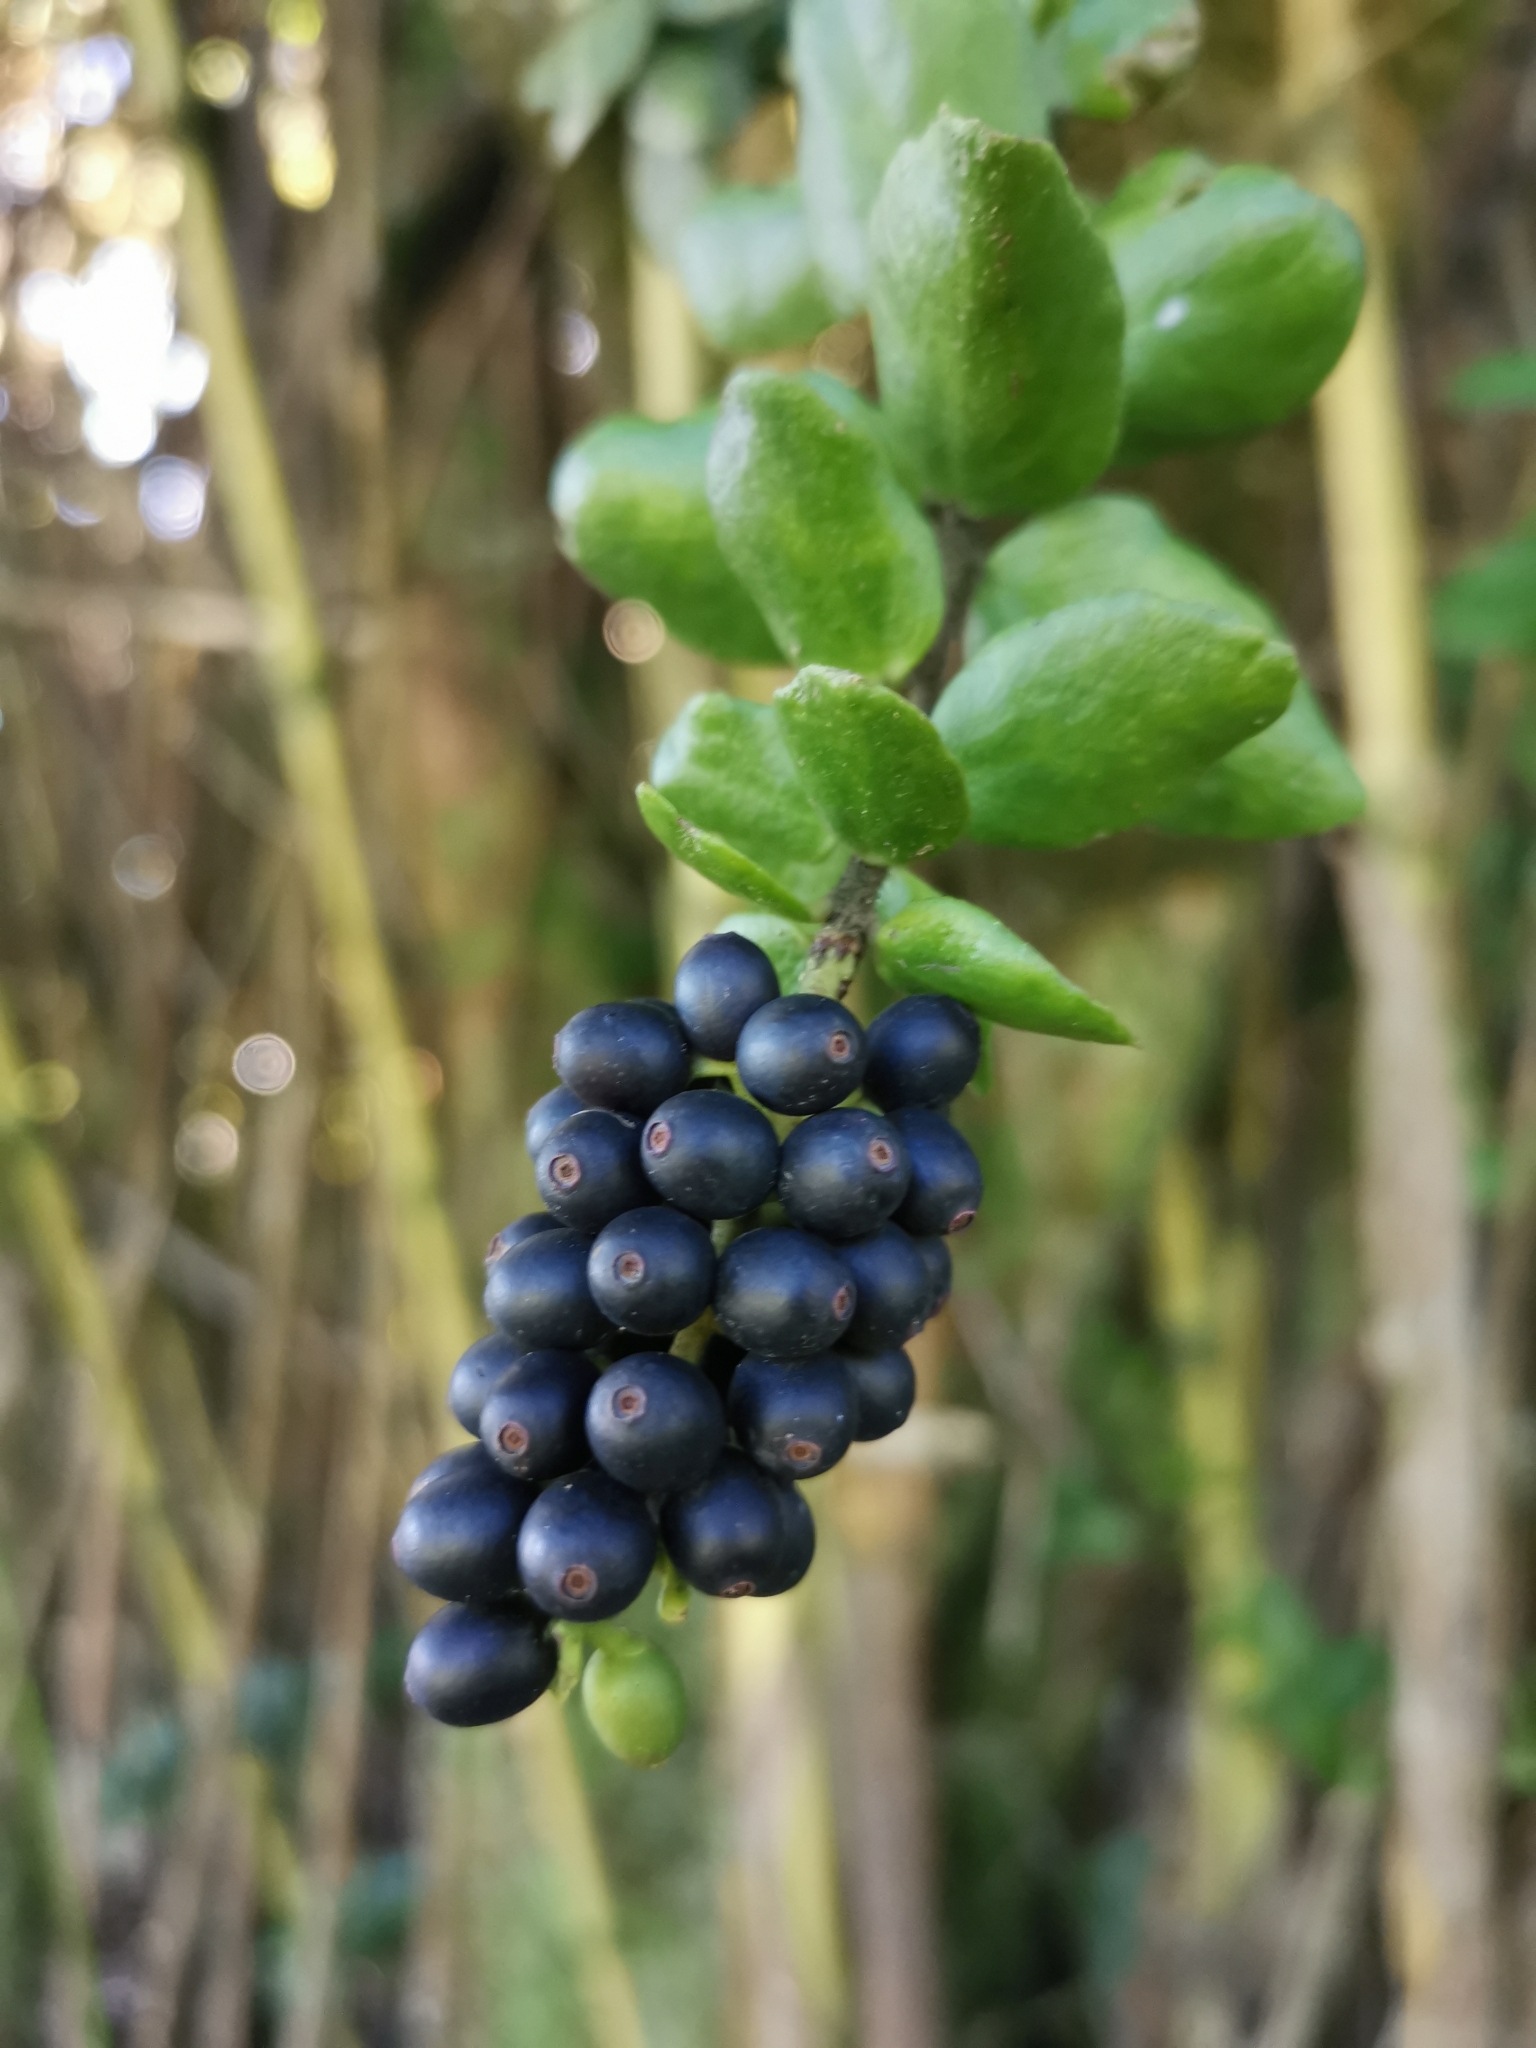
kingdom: Plantae
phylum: Tracheophyta
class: Magnoliopsida
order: Santalales
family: Loranthaceae
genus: Notanthera
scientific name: Notanthera heterophylla
